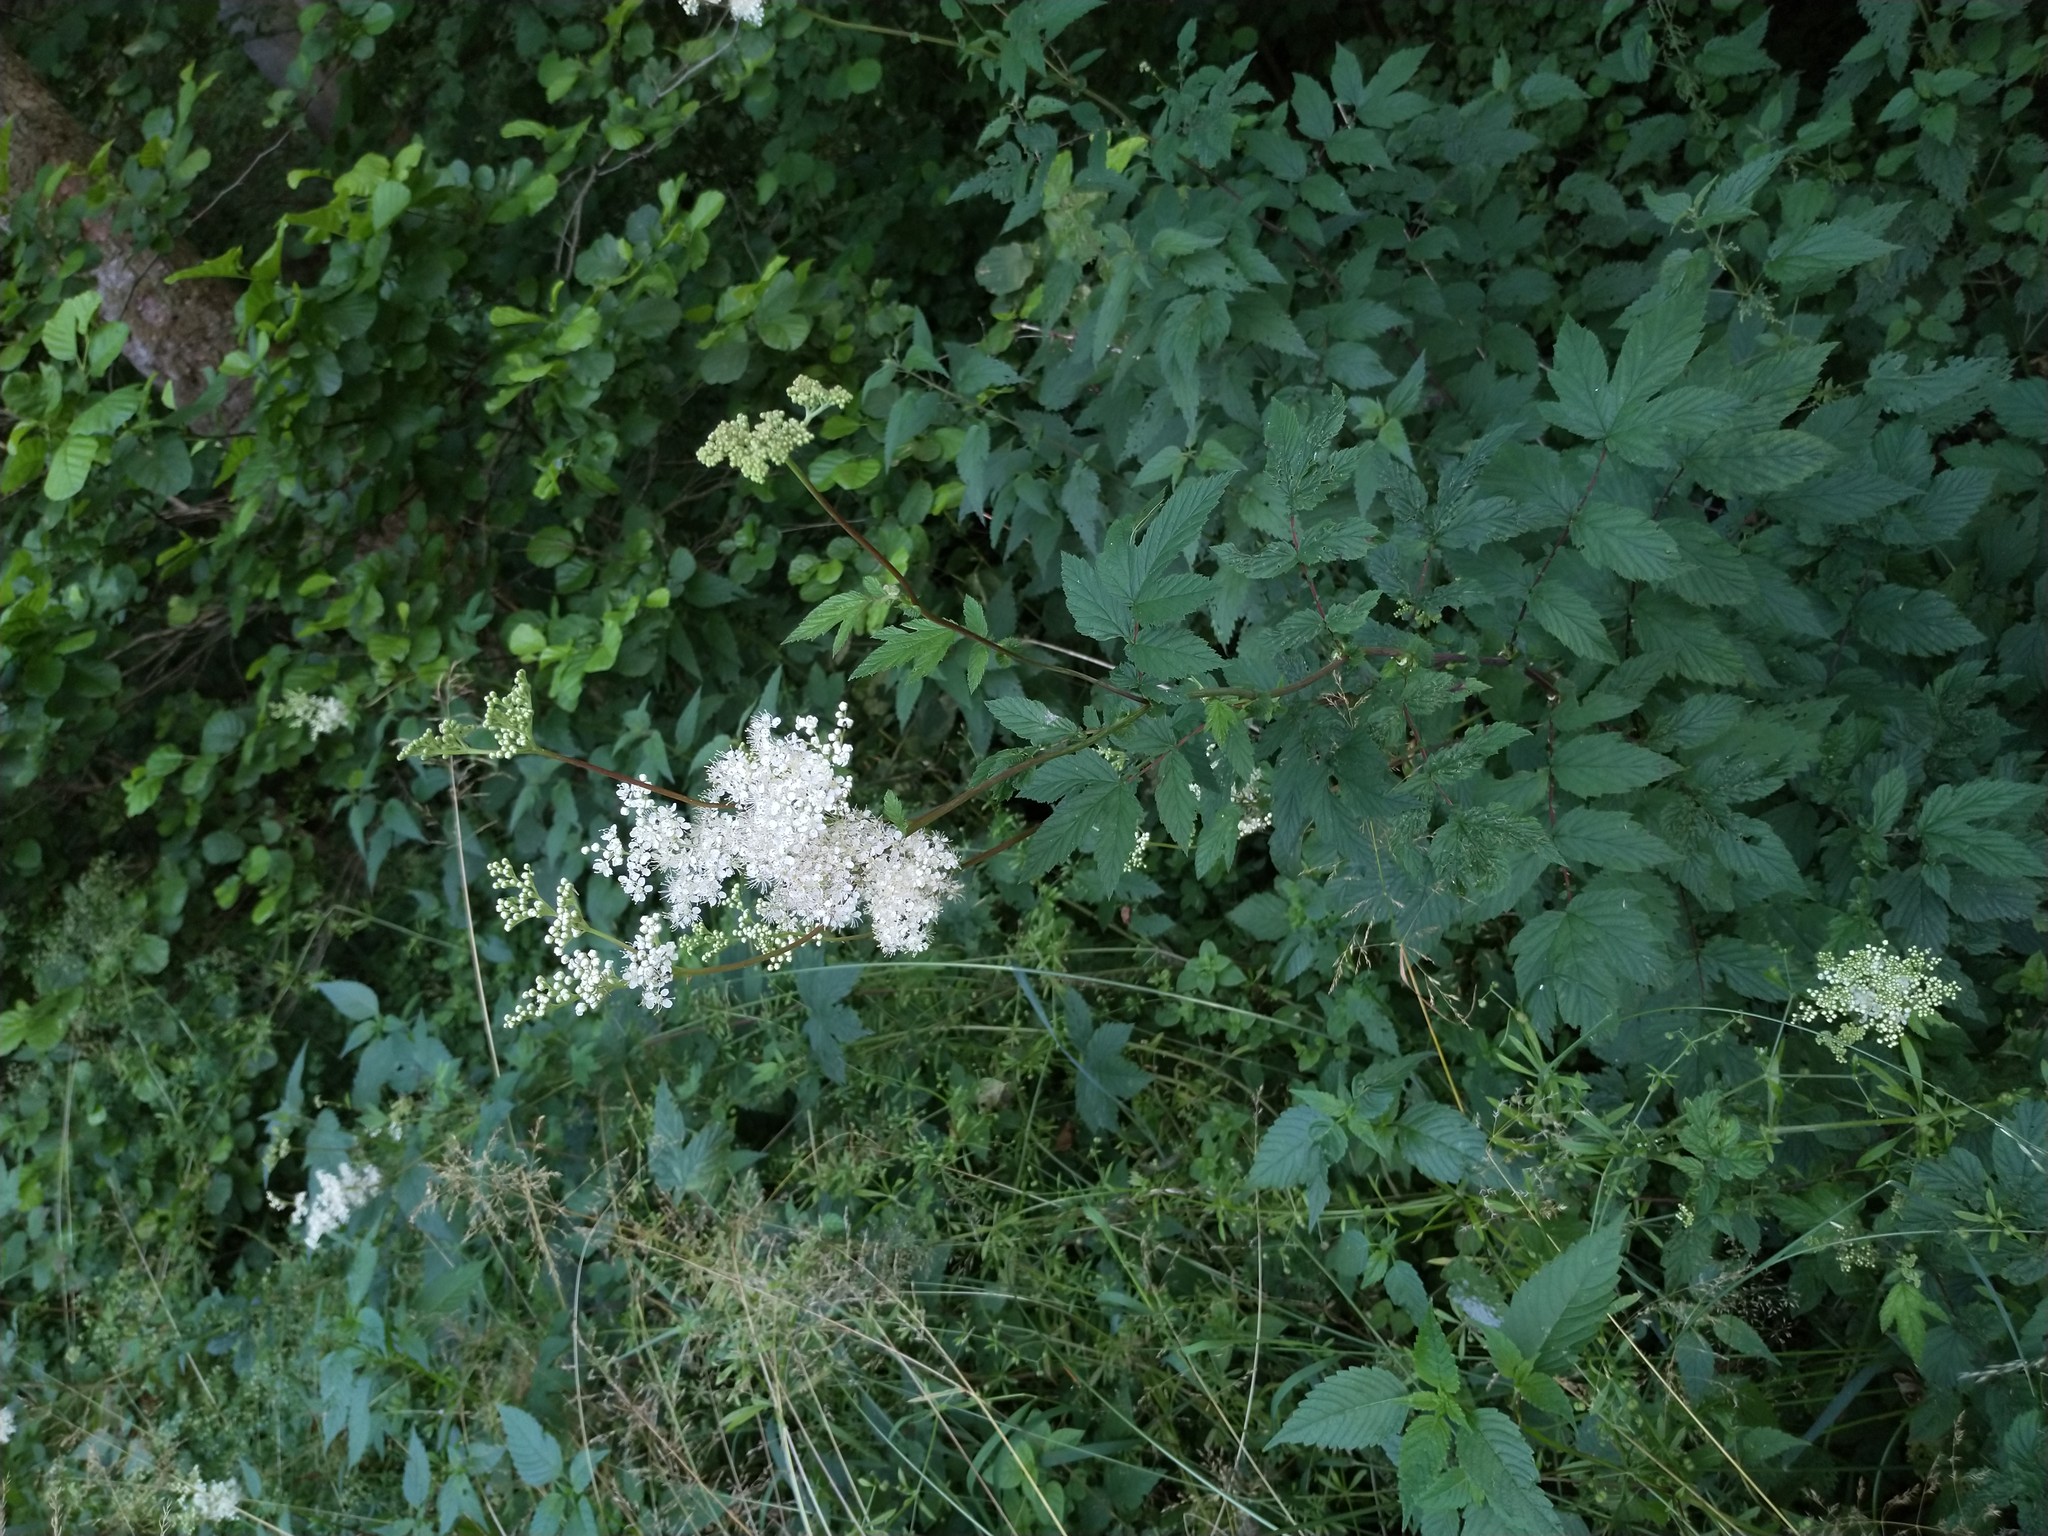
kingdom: Plantae
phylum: Tracheophyta
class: Magnoliopsida
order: Rosales
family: Rosaceae
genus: Filipendula
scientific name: Filipendula ulmaria
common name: Meadowsweet
